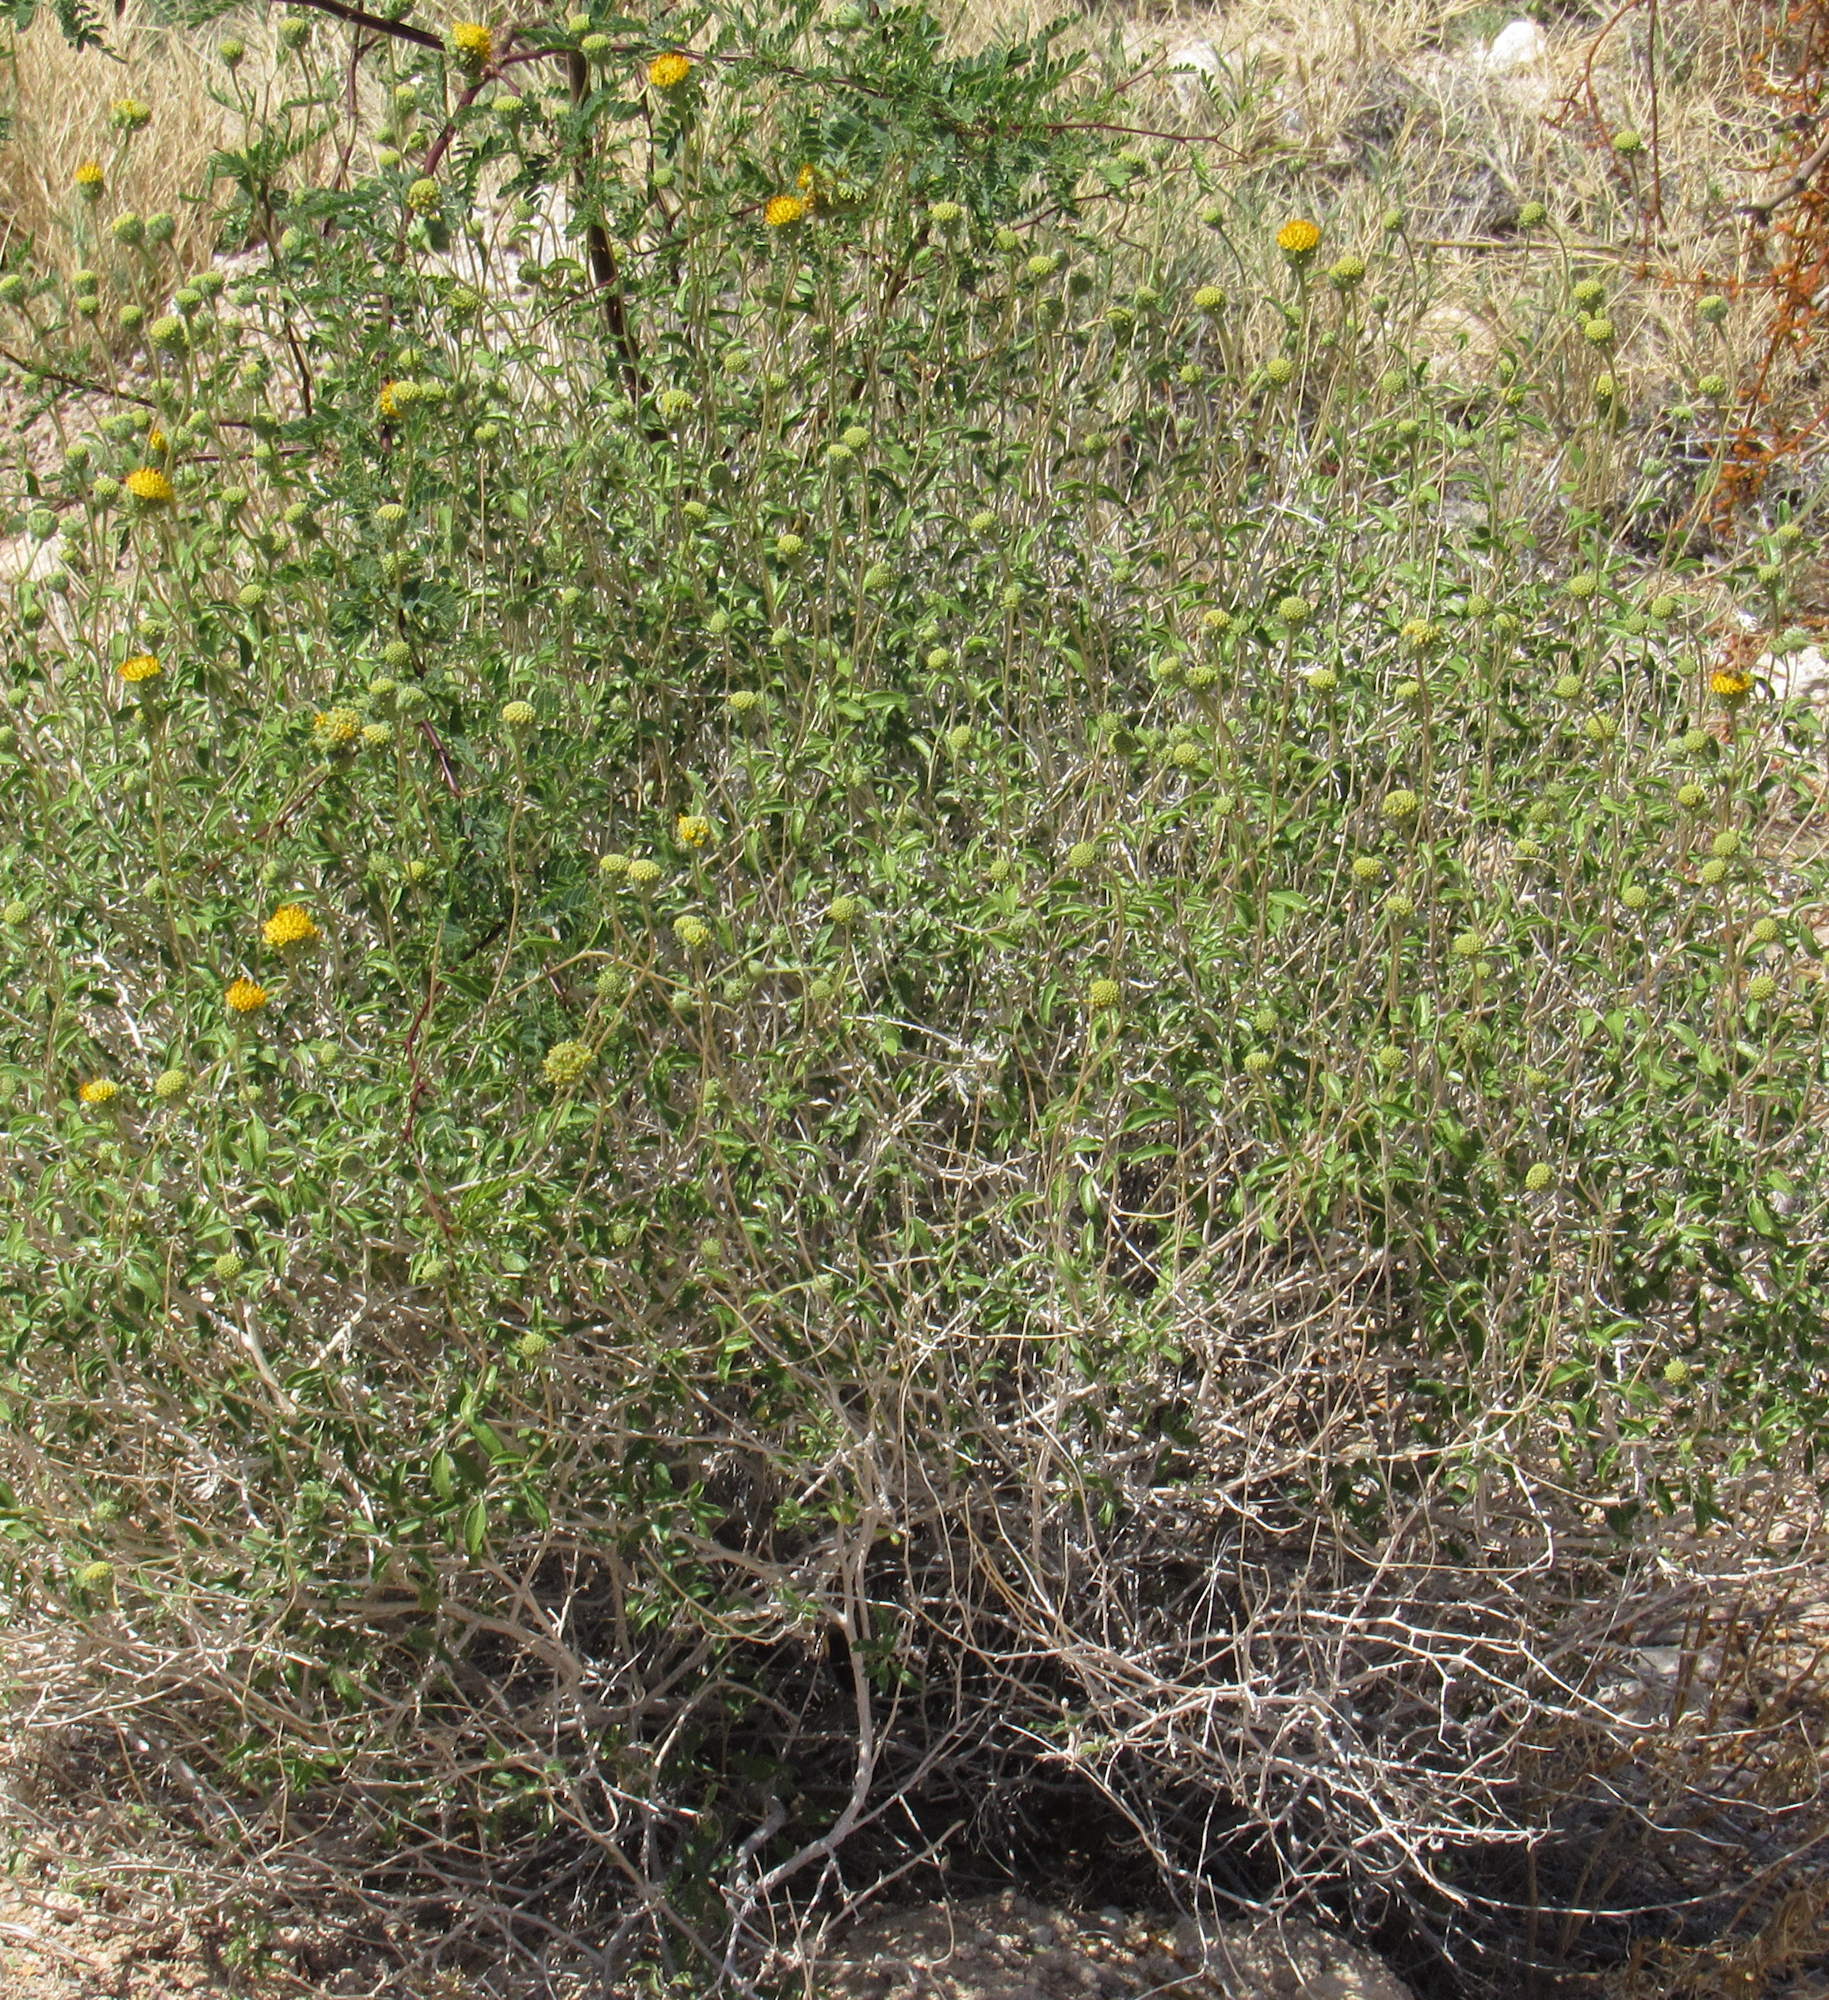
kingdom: Plantae
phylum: Tracheophyta
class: Magnoliopsida
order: Asterales
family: Asteraceae
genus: Encelia
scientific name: Encelia frutescens
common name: Bush encelia
